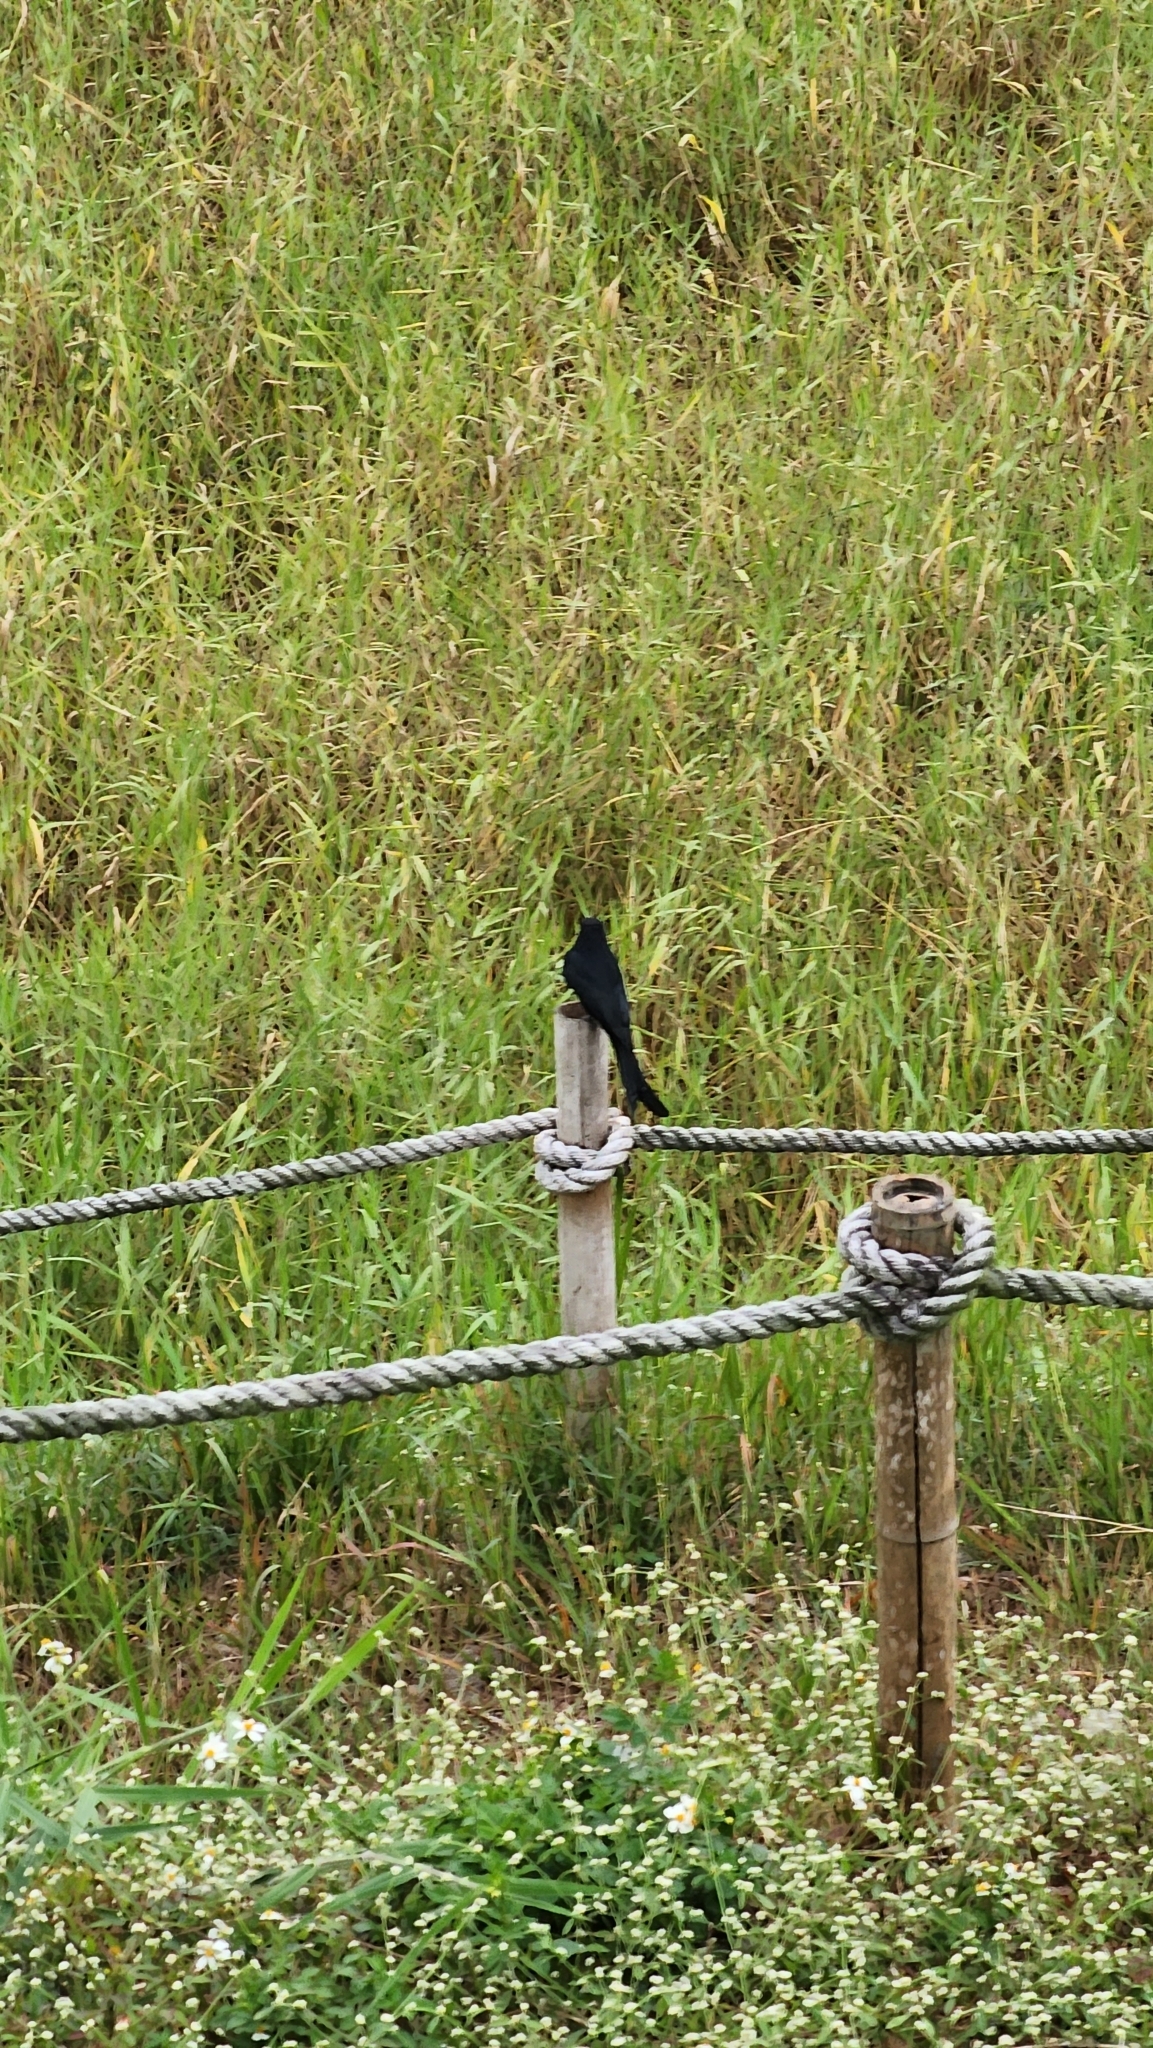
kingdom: Animalia
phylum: Chordata
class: Aves
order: Passeriformes
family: Dicruridae
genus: Dicrurus
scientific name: Dicrurus macrocercus
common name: Black drongo
